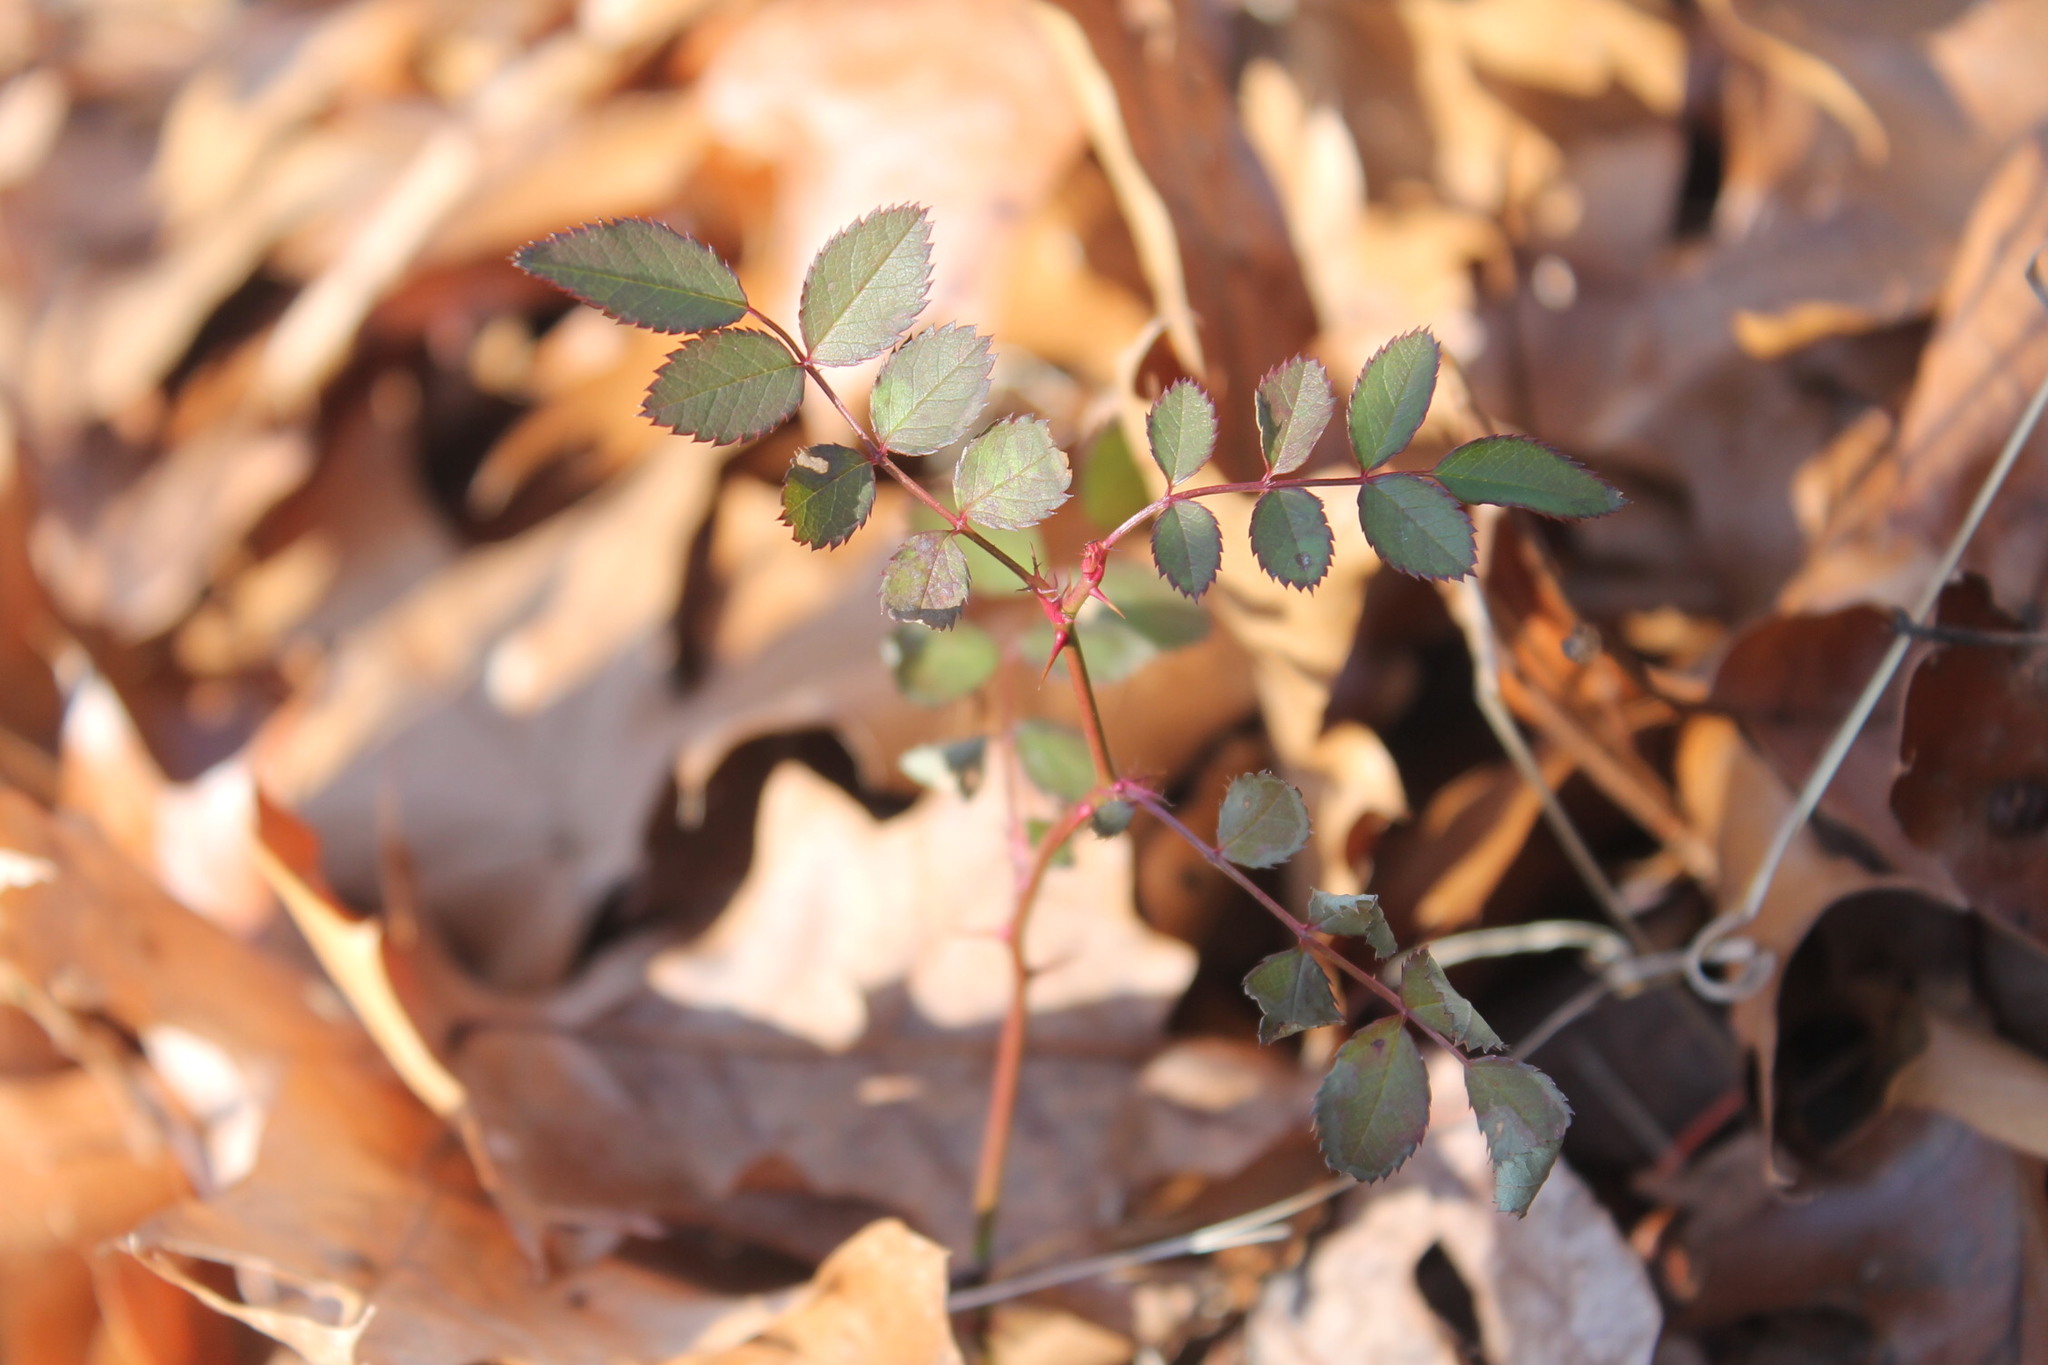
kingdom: Plantae
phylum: Tracheophyta
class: Magnoliopsida
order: Rosales
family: Rosaceae
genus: Rosa
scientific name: Rosa multiflora
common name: Multiflora rose
